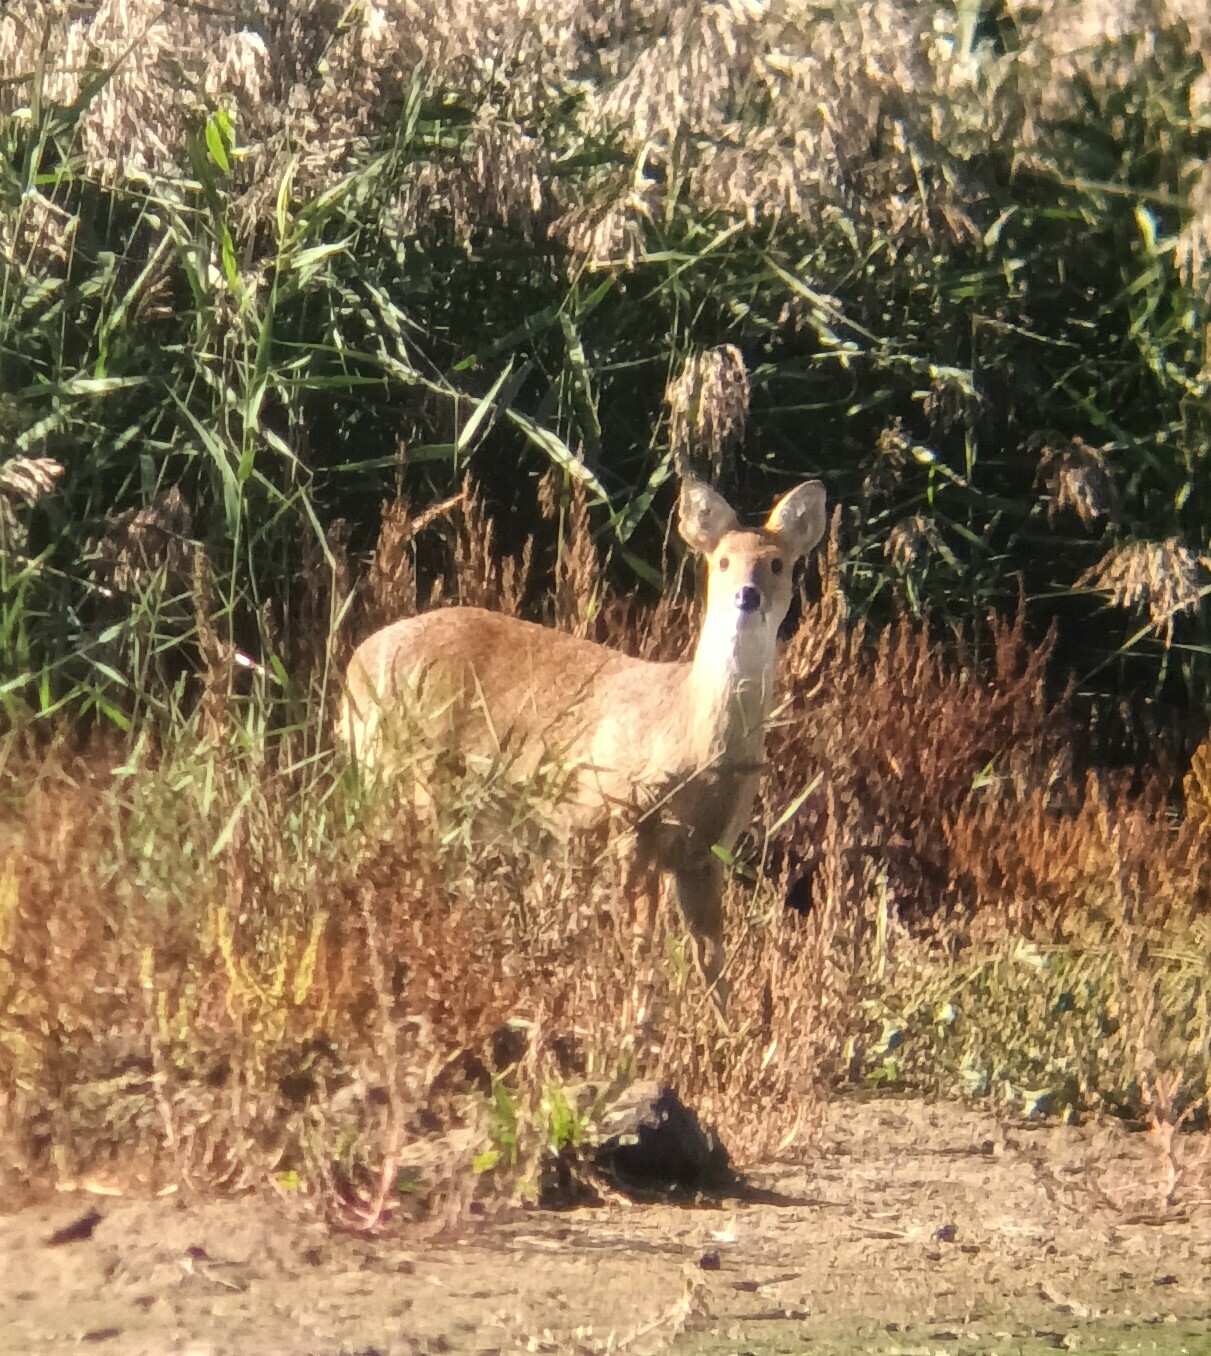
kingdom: Animalia
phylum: Chordata
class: Mammalia
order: Artiodactyla
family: Cervidae
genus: Hydropotes
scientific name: Hydropotes inermis
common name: Chinese water deer
